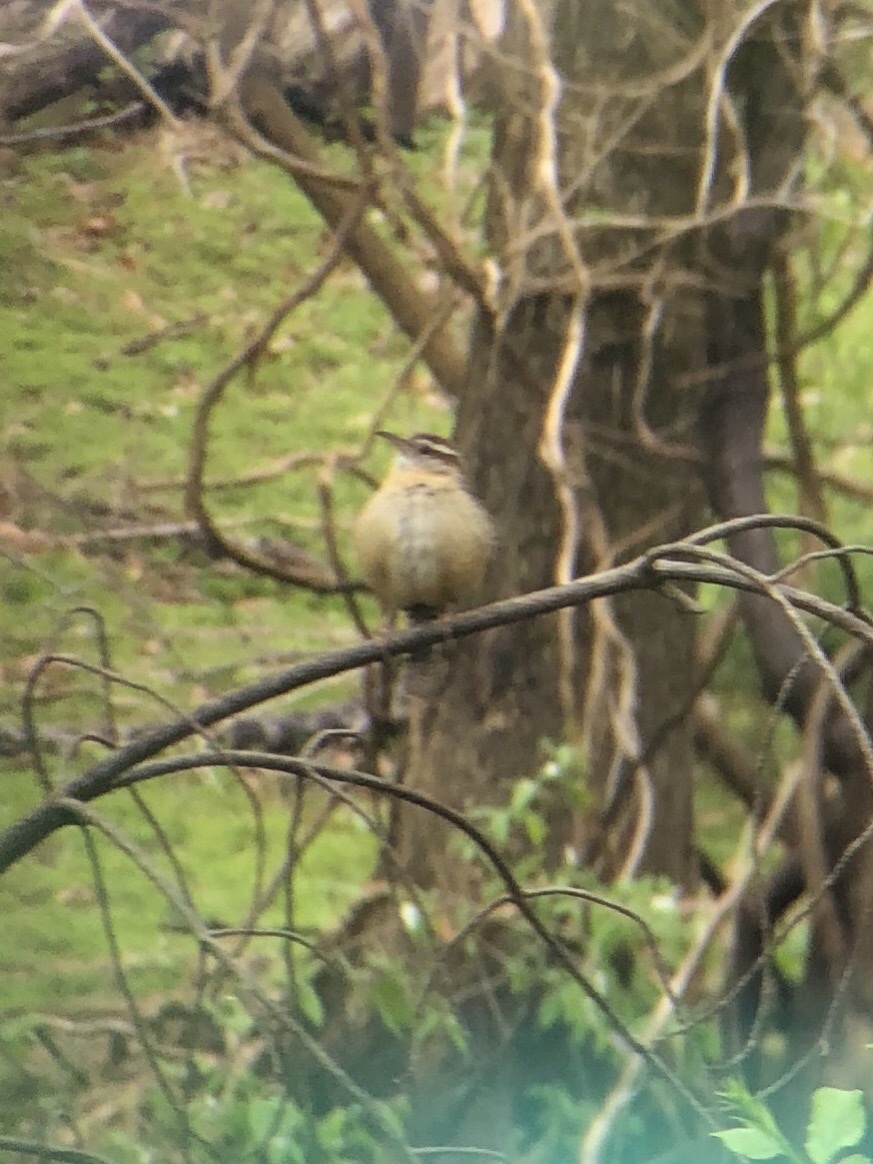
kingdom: Animalia
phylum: Chordata
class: Aves
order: Passeriformes
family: Troglodytidae
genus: Thryothorus
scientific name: Thryothorus ludovicianus
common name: Carolina wren
